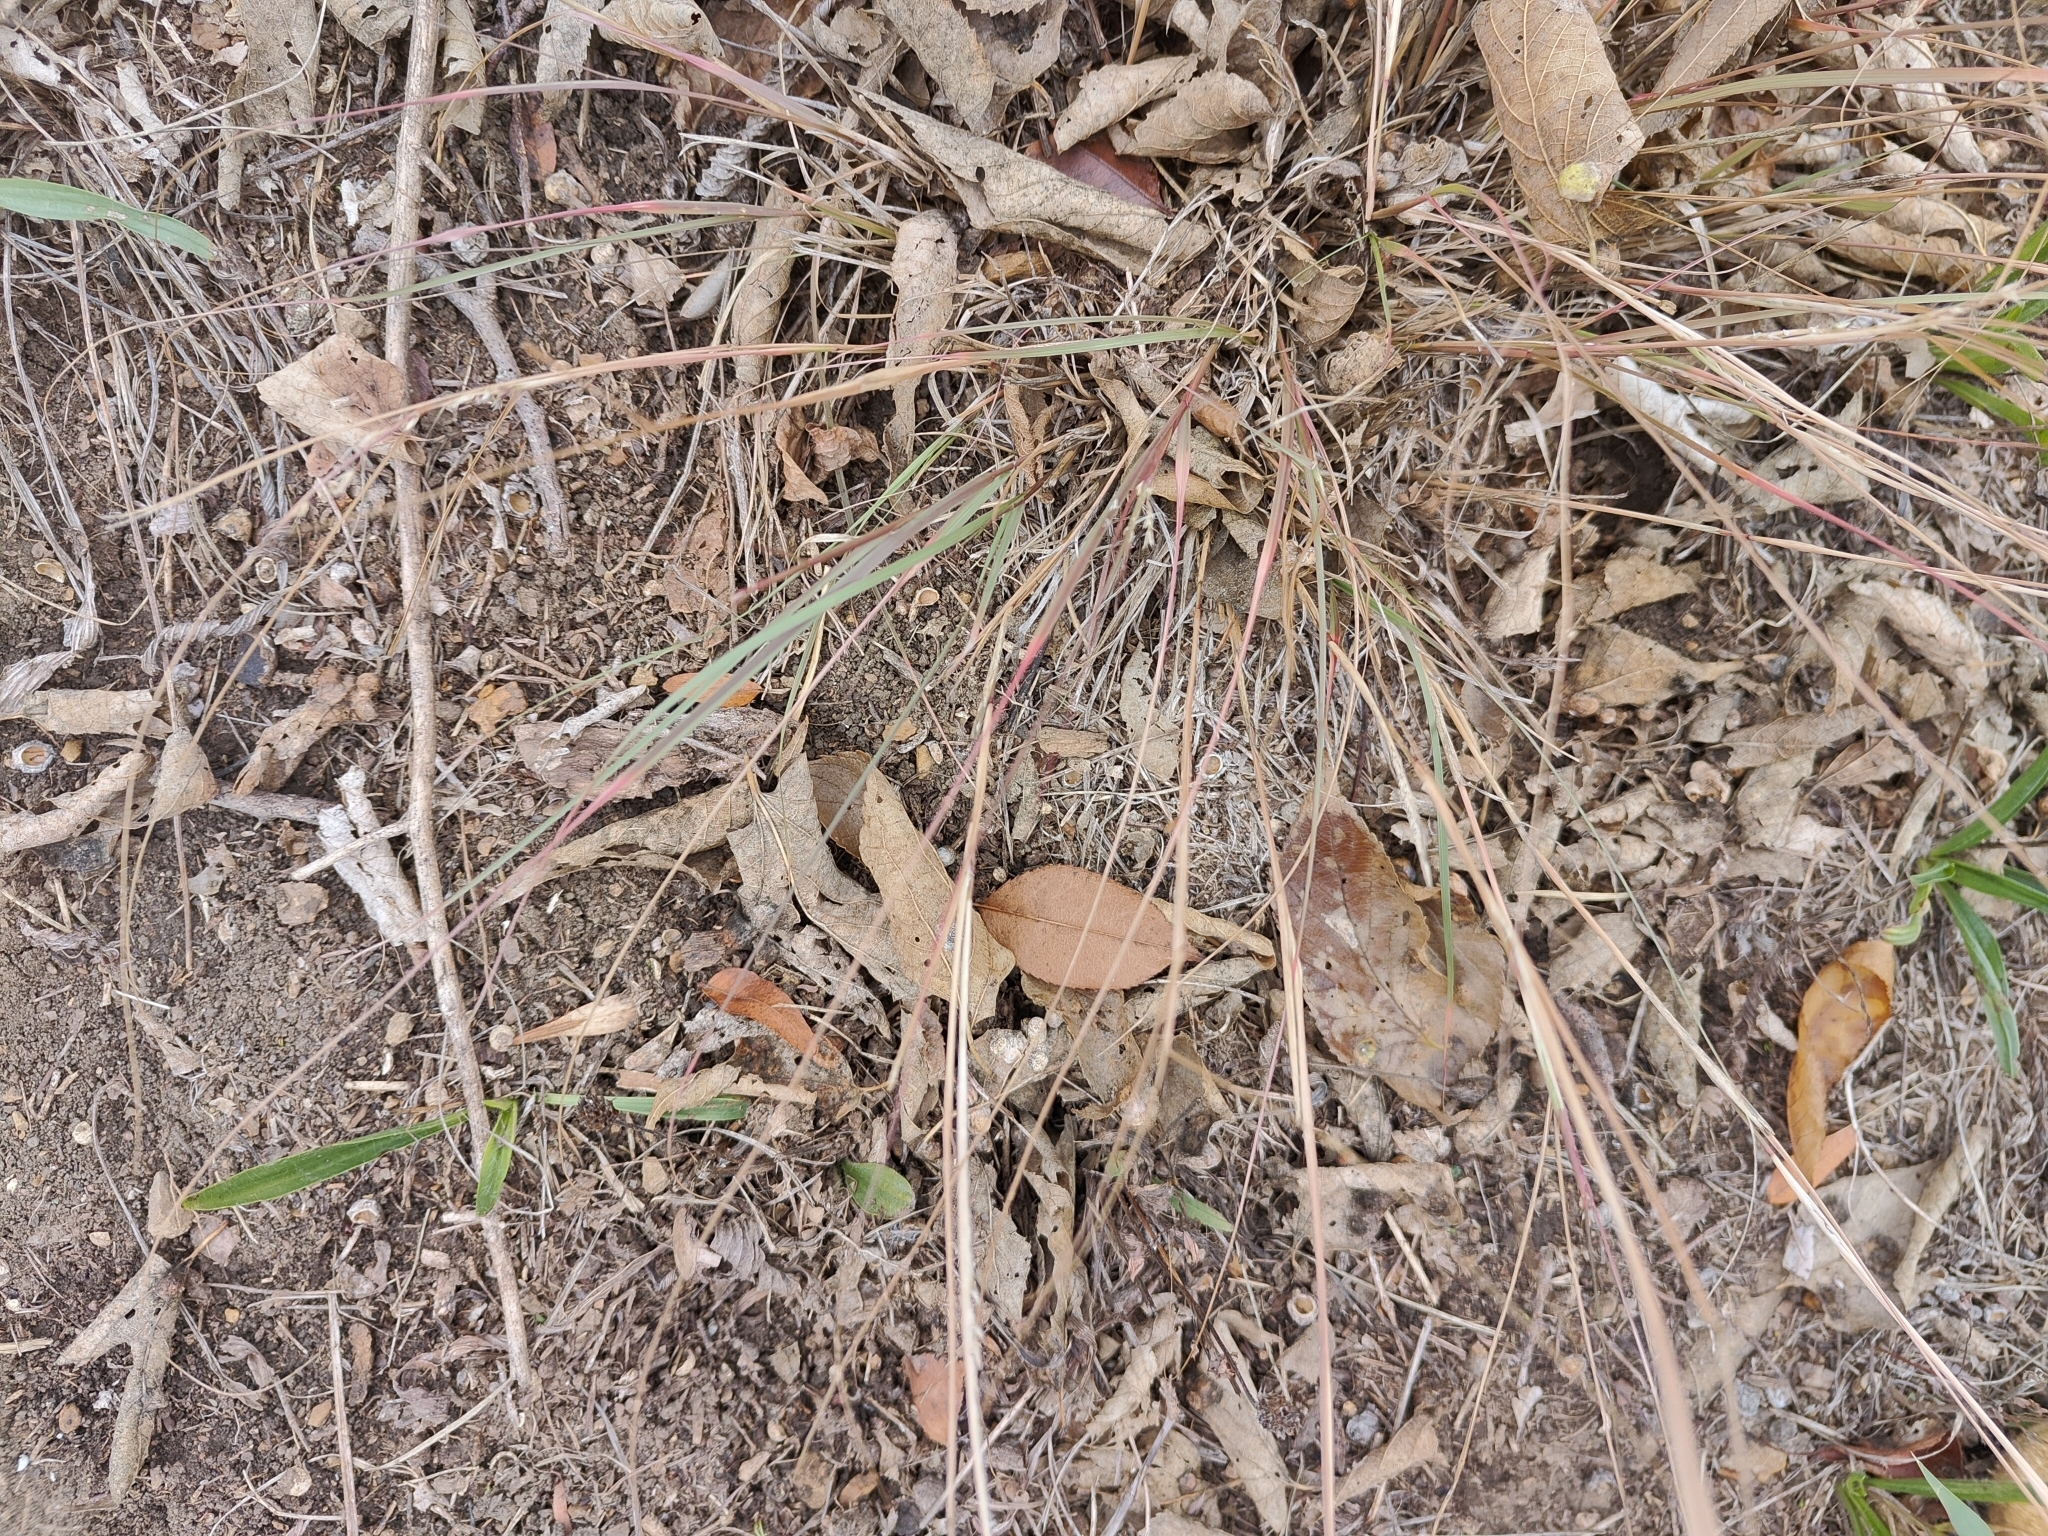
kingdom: Plantae
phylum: Tracheophyta
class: Liliopsida
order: Poales
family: Poaceae
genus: Sporobolus
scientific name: Sporobolus compositus
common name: Rough dropseed
